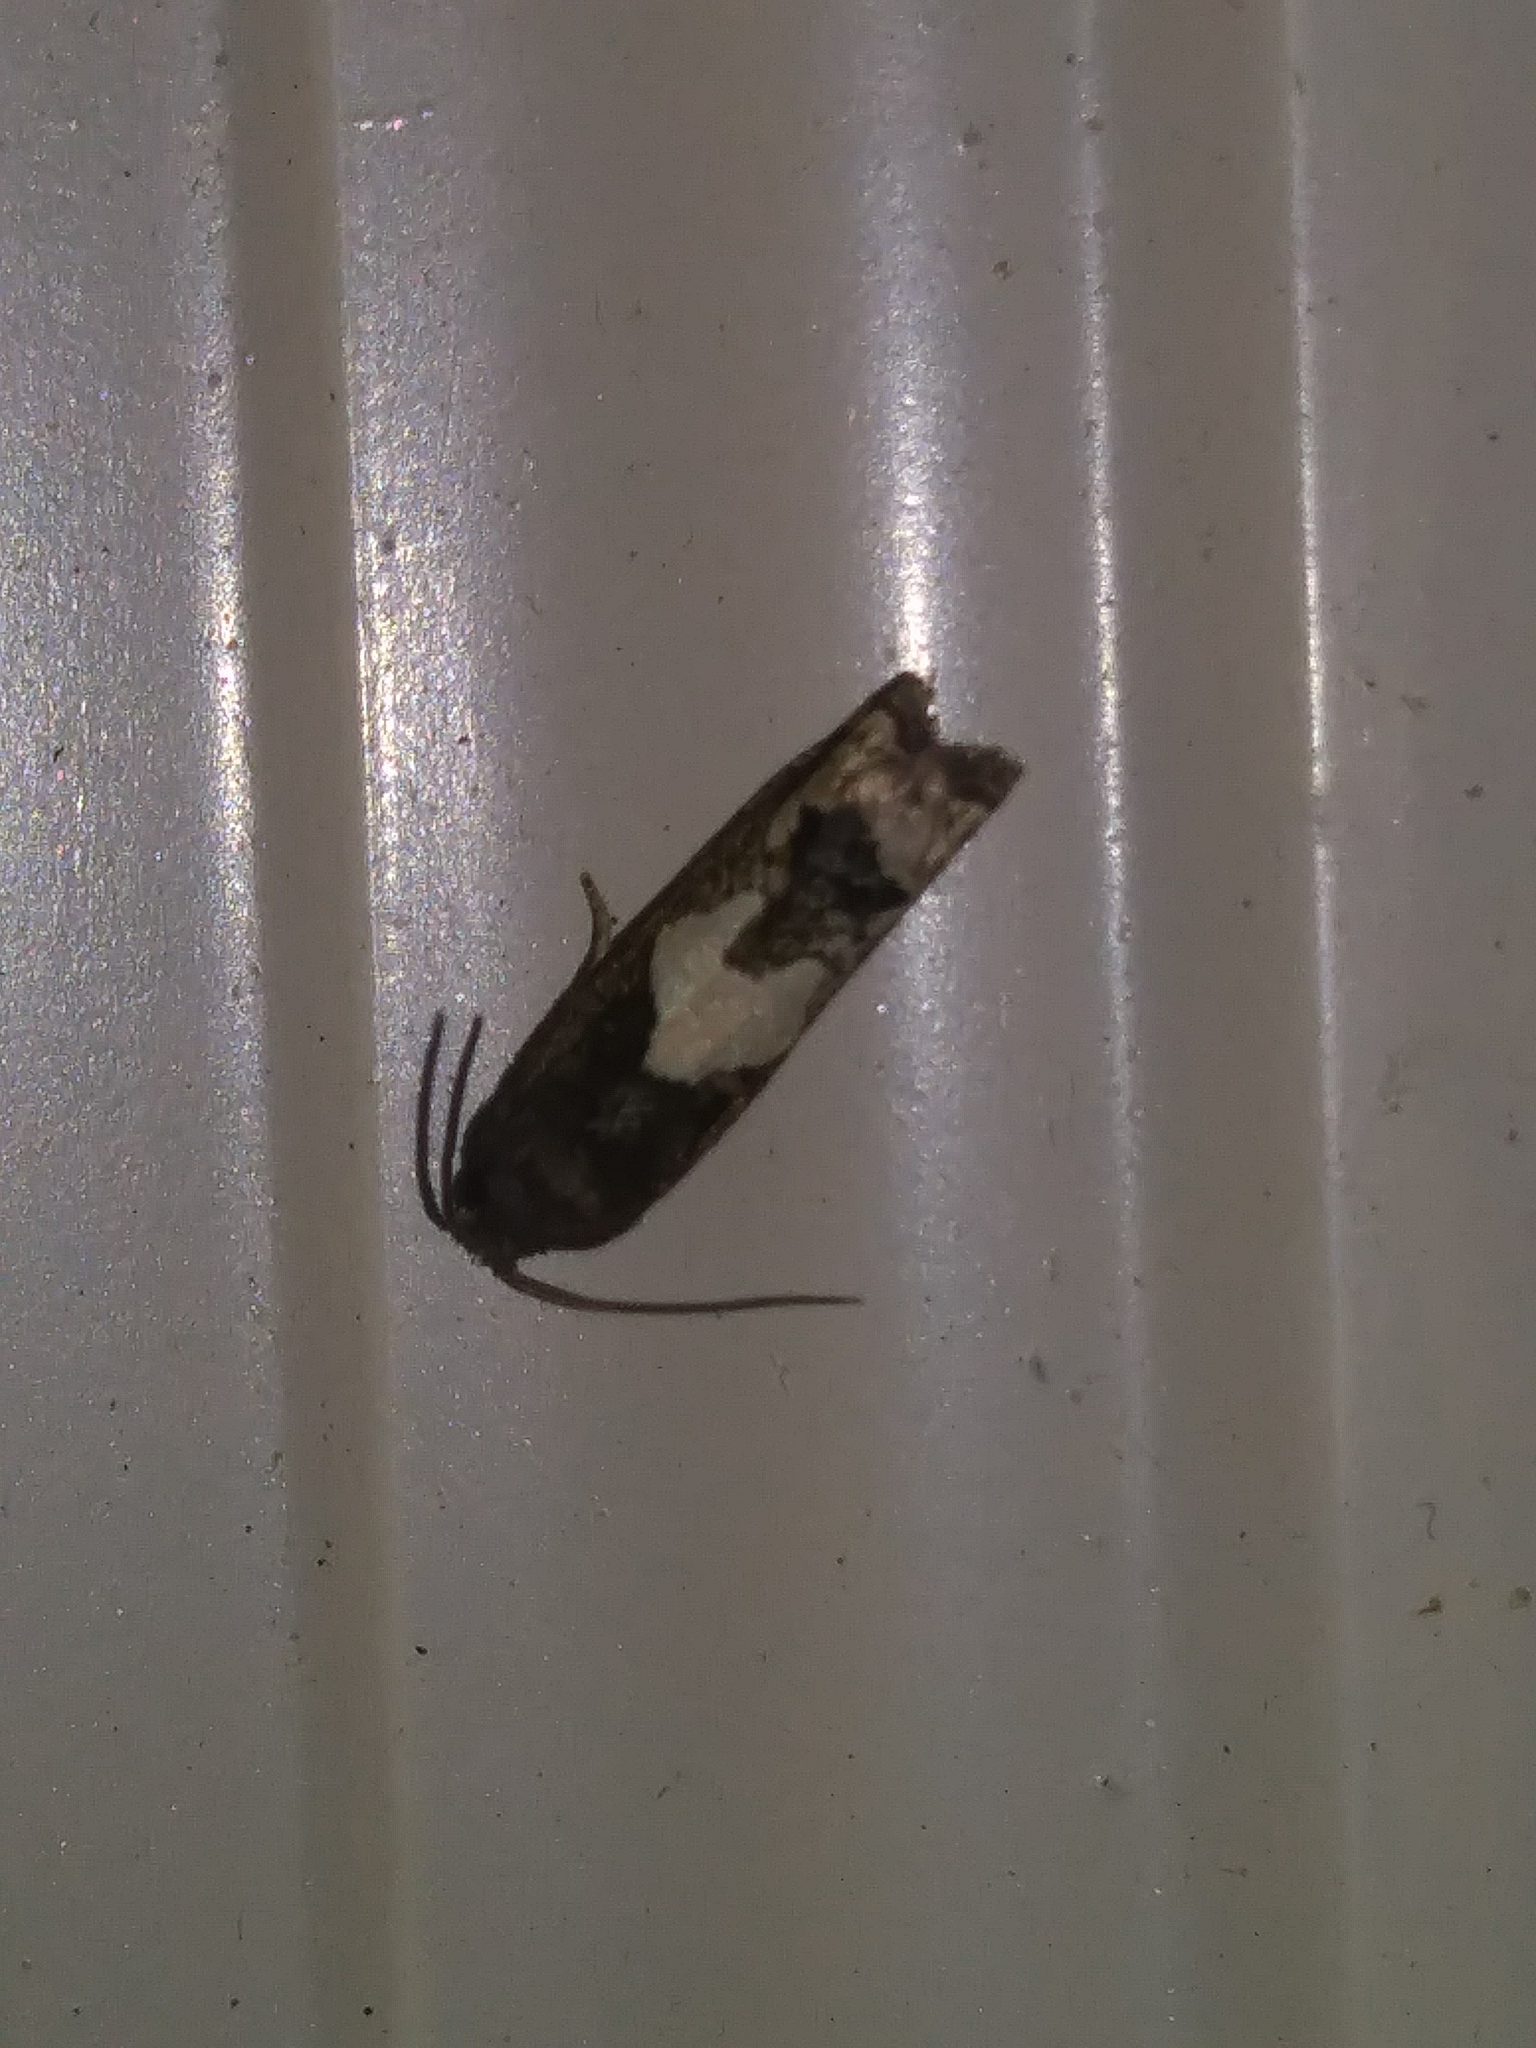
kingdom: Animalia
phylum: Arthropoda
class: Insecta
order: Lepidoptera
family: Tortricidae
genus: Epiblema
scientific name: Epiblema otiosana
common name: Bidens borer moth
